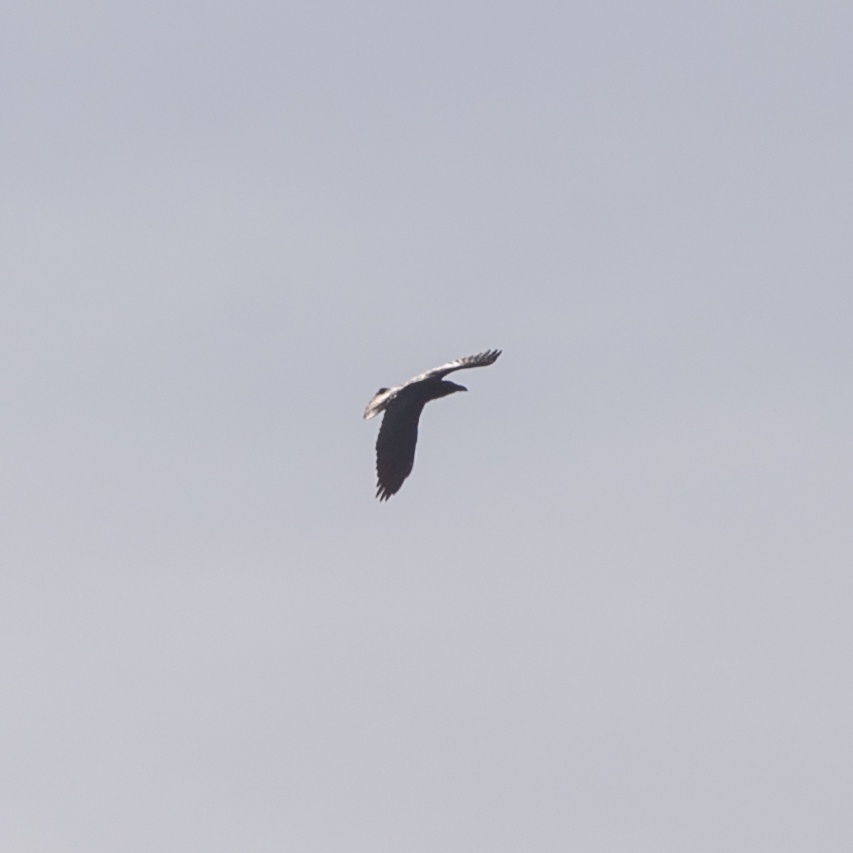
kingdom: Animalia
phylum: Chordata
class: Aves
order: Passeriformes
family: Corvidae
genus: Corvus
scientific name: Corvus corax
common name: Common raven
